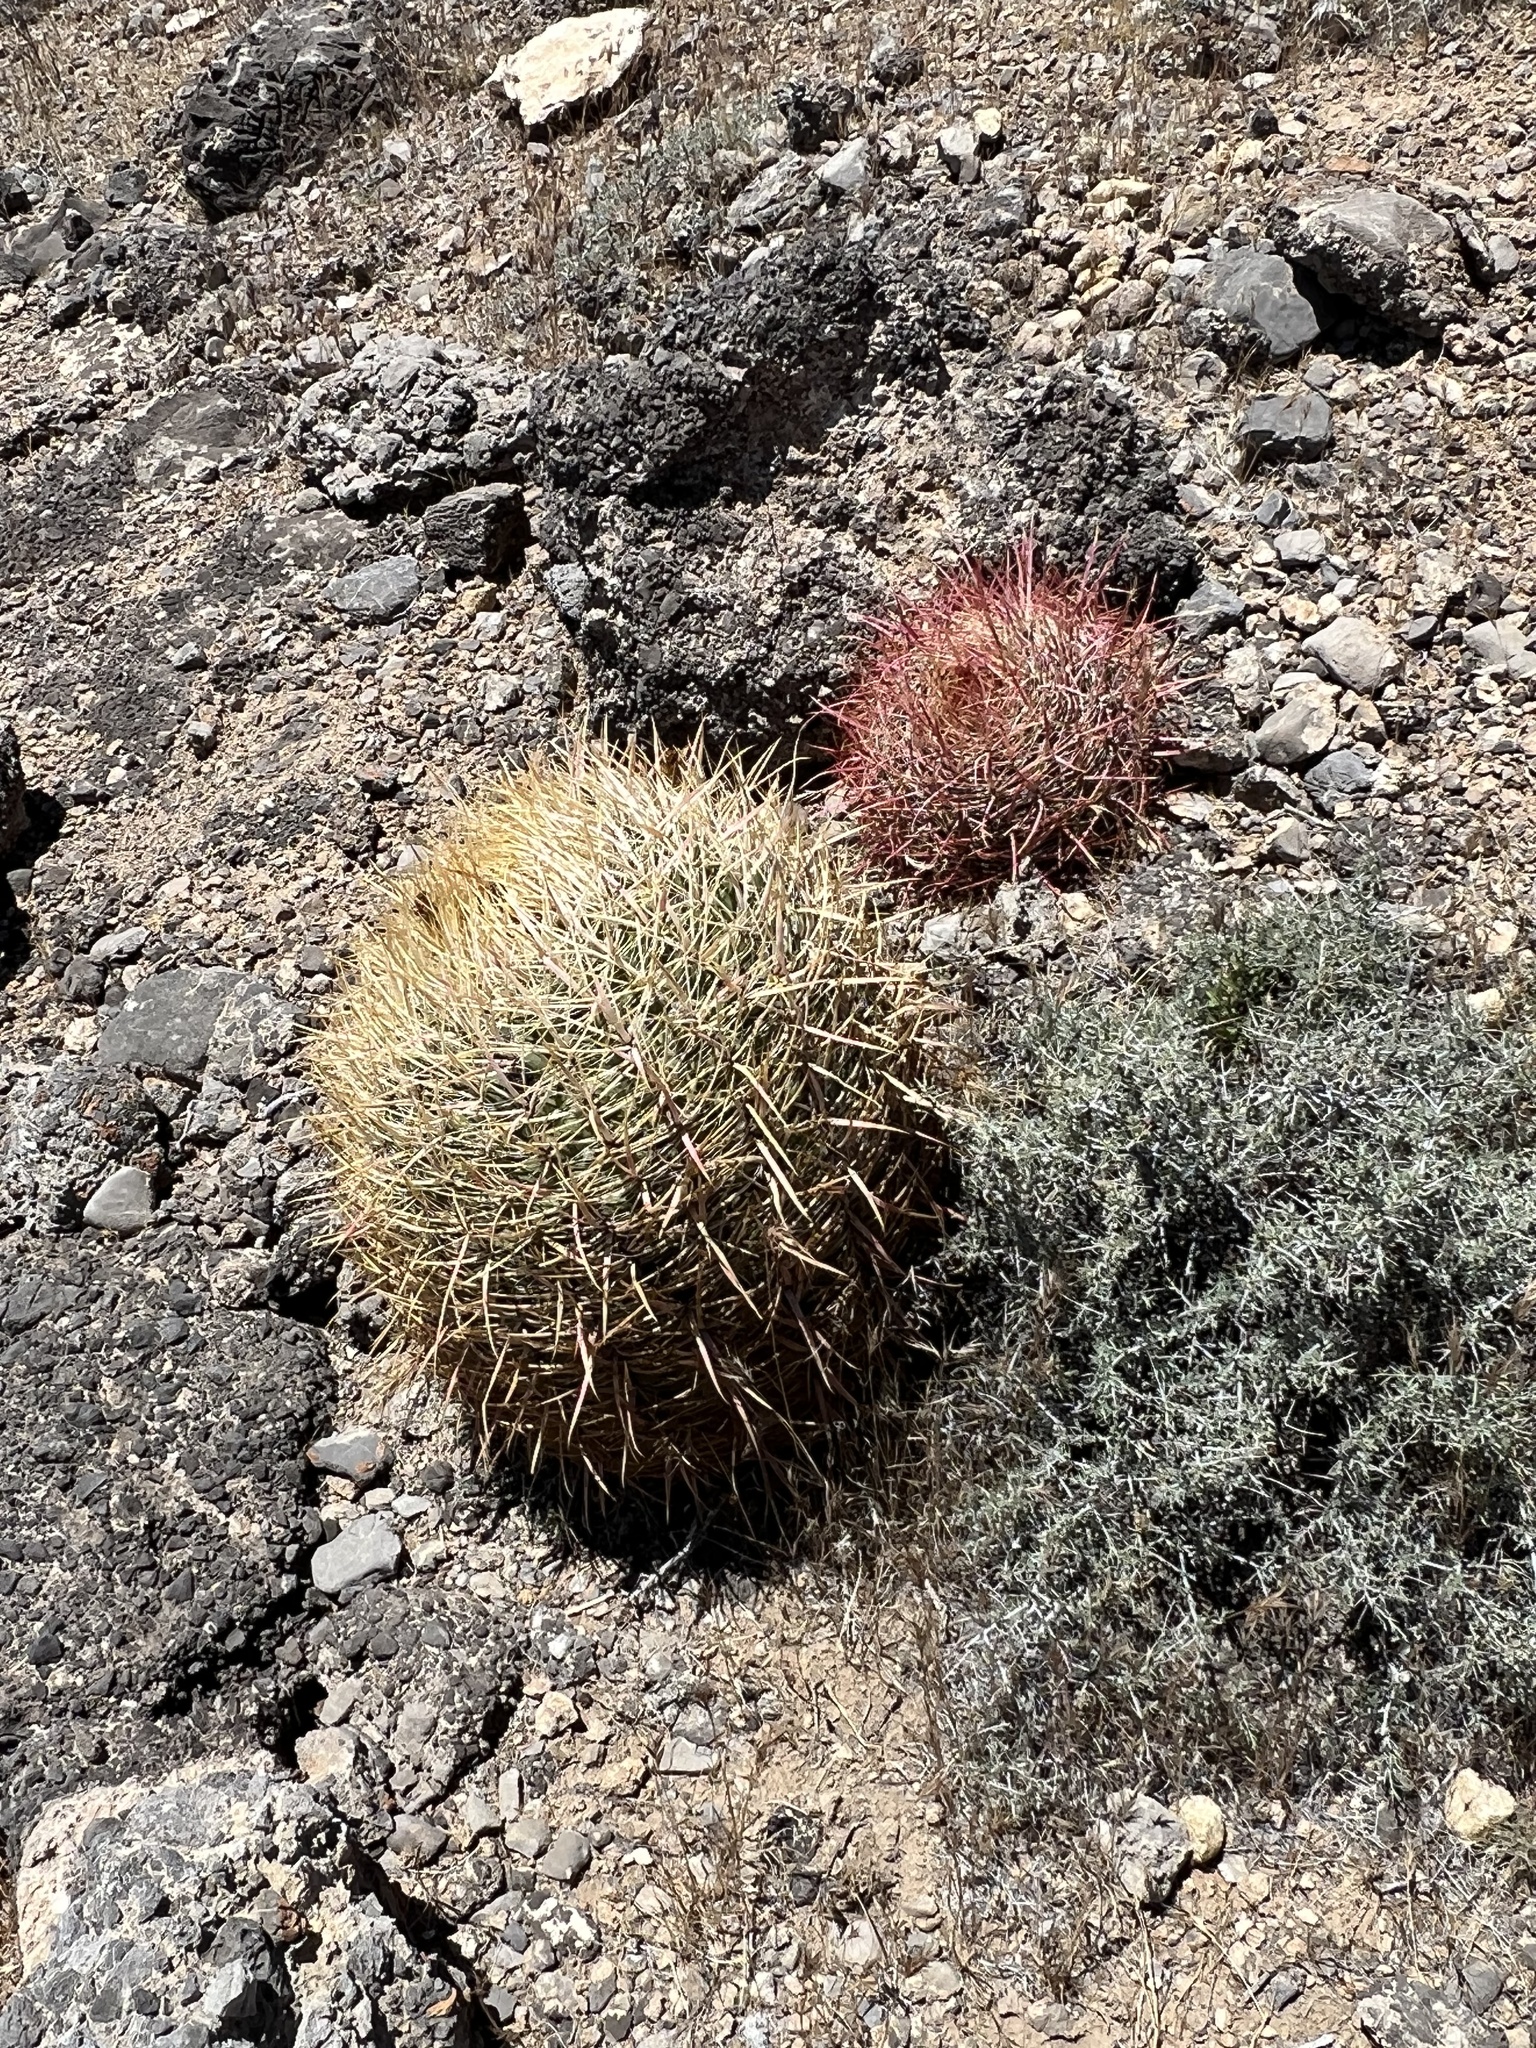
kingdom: Plantae
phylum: Tracheophyta
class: Magnoliopsida
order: Caryophyllales
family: Cactaceae
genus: Ferocactus
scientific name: Ferocactus cylindraceus
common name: California barrel cactus
